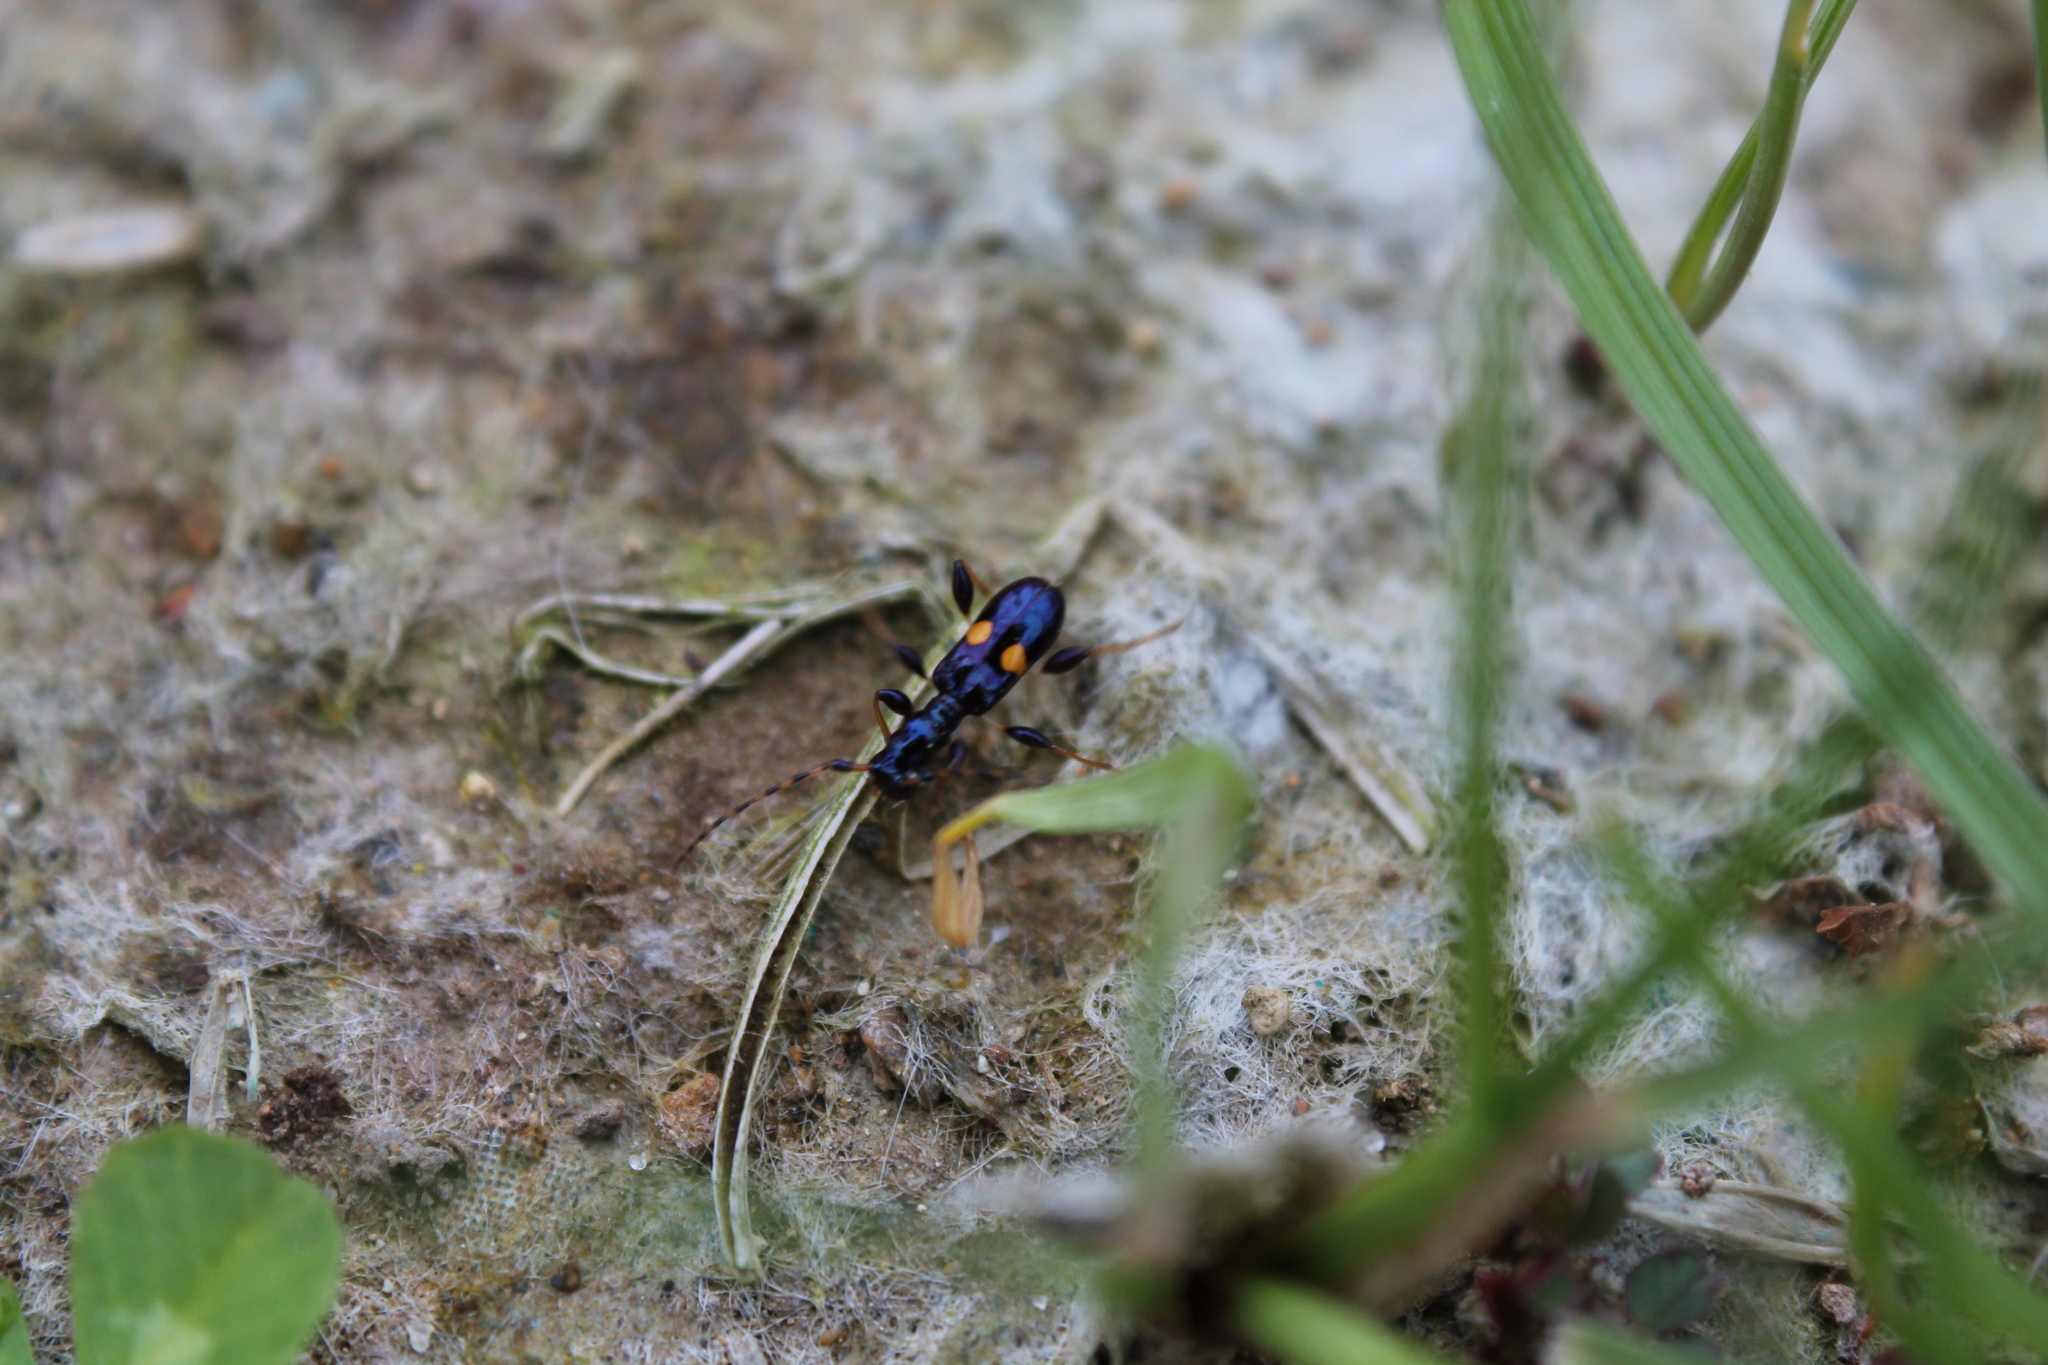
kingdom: Animalia
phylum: Arthropoda
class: Insecta
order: Coleoptera
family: Cerambycidae
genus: Zorion
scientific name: Zorion guttigerum
